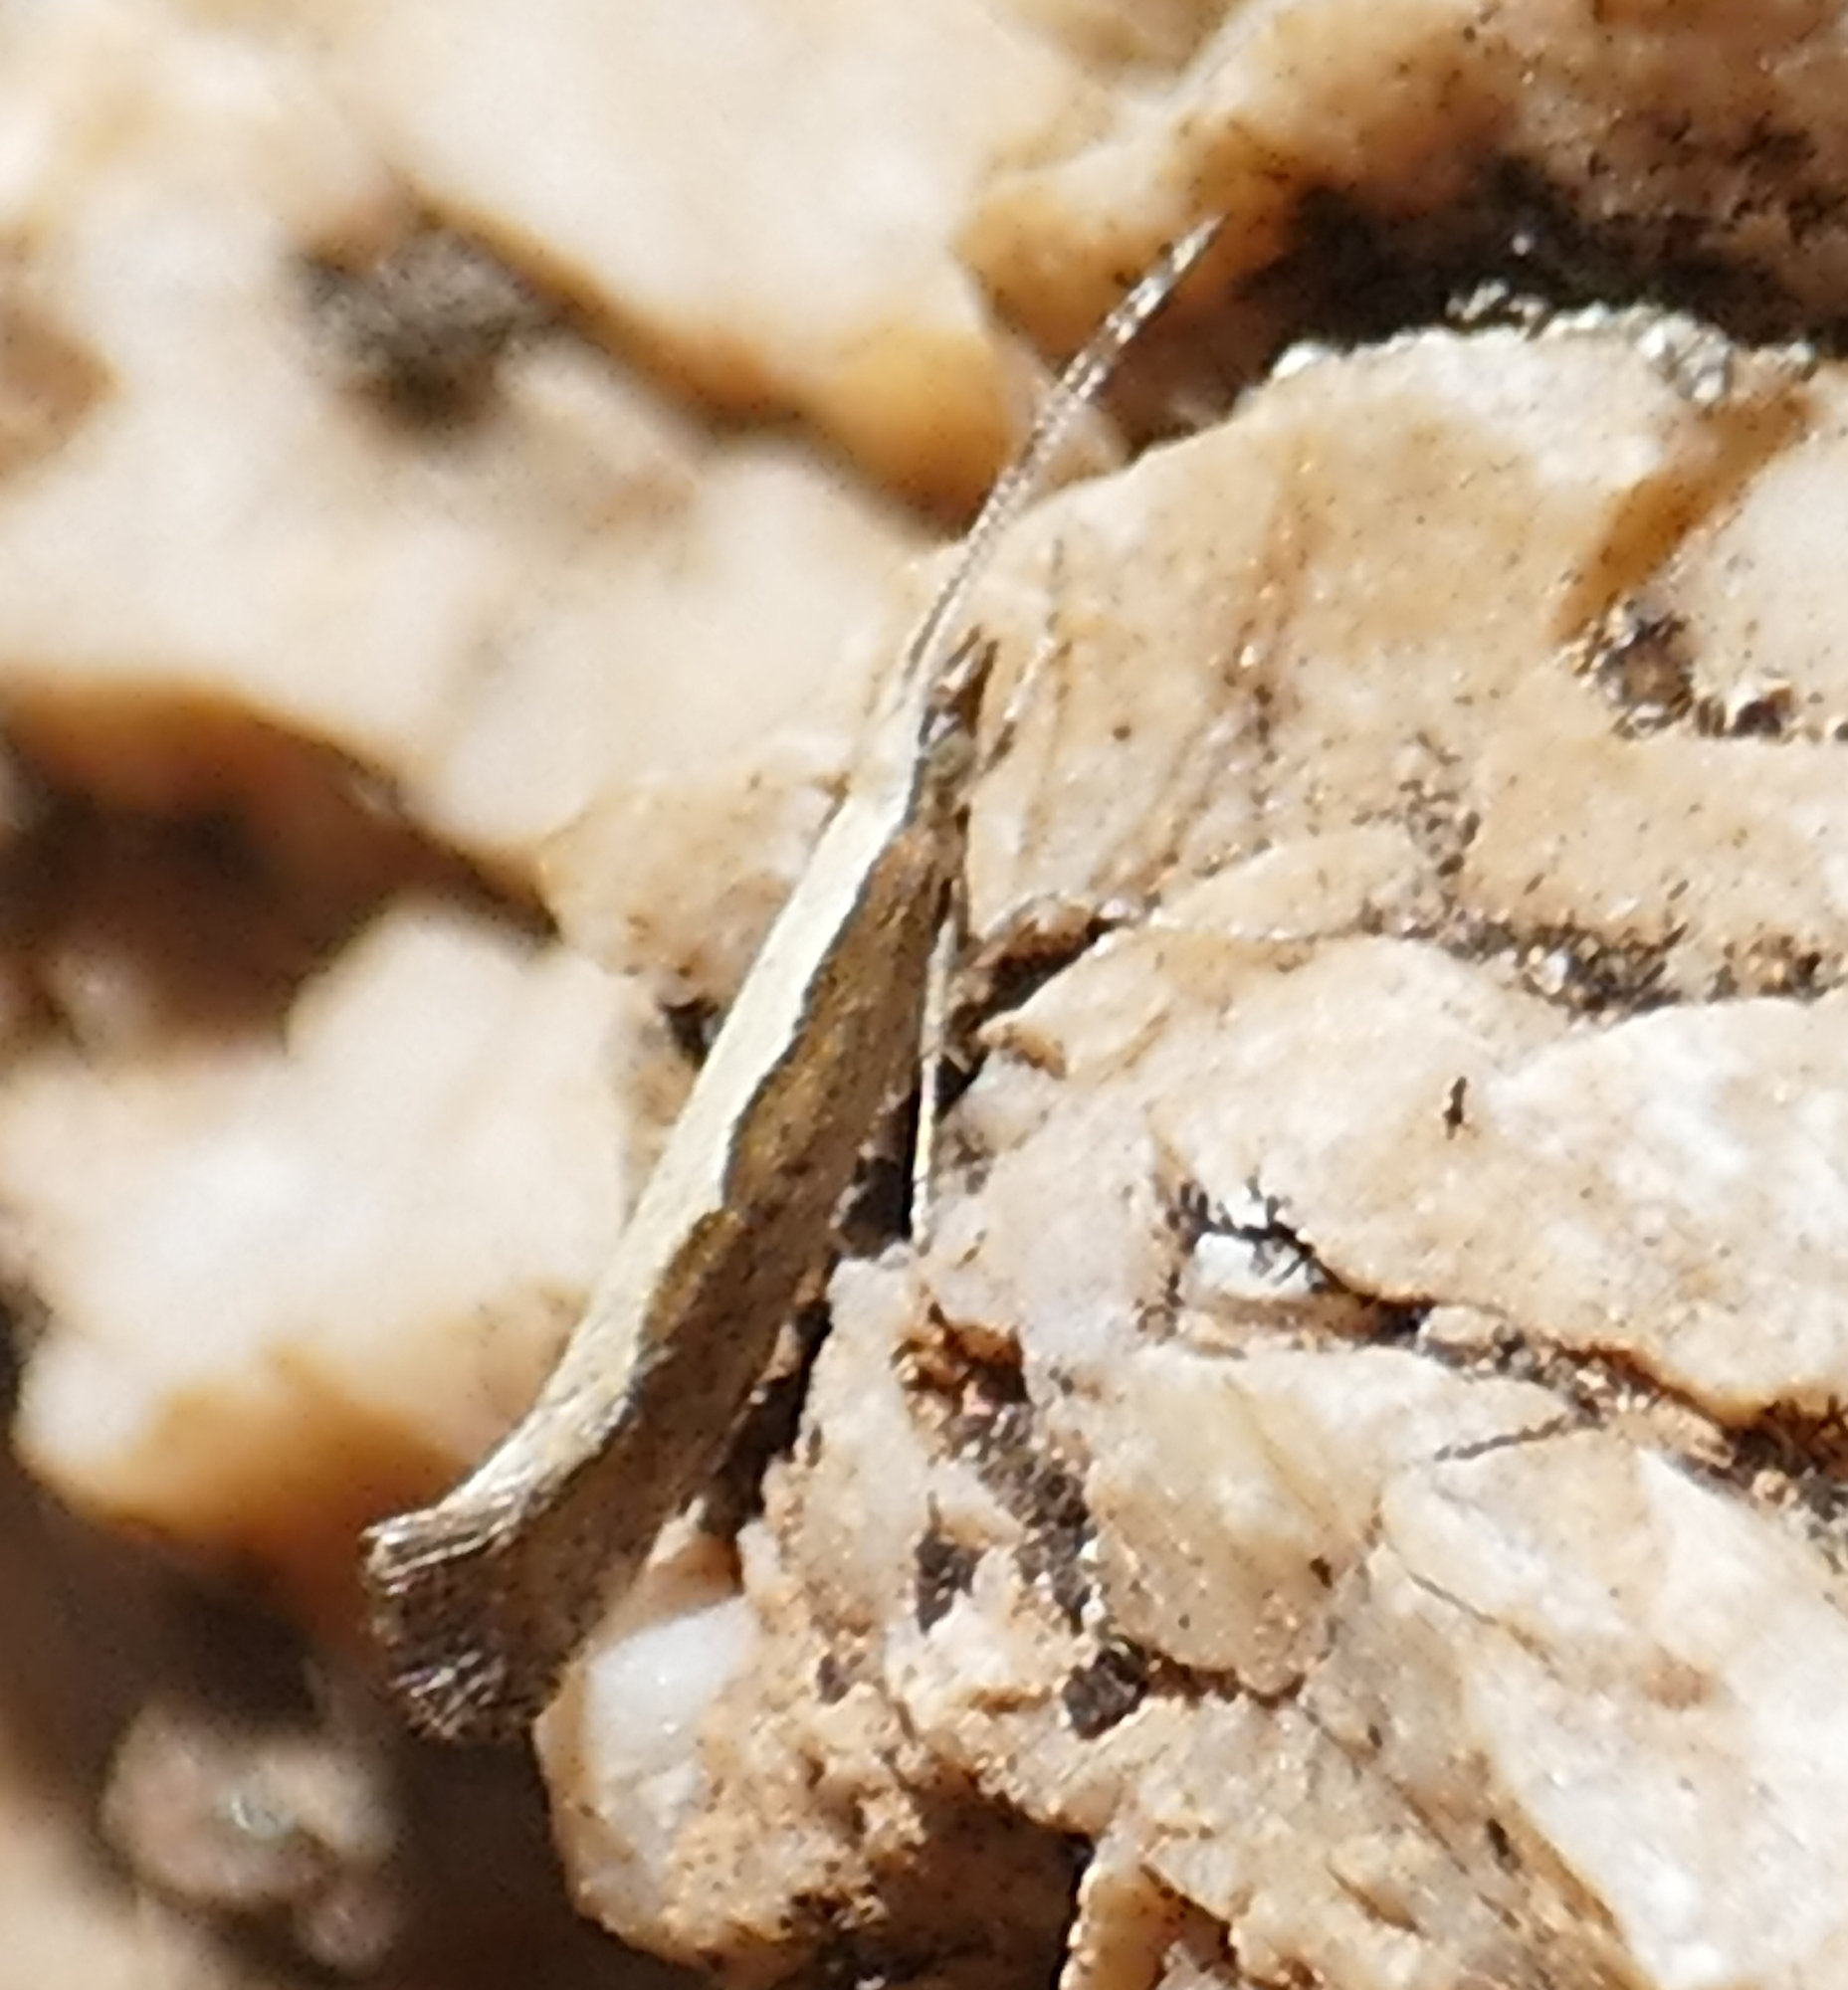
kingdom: Animalia
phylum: Arthropoda
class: Insecta
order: Lepidoptera
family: Plutellidae
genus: Plutella
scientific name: Plutella xylostella
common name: Diamond-back moth
